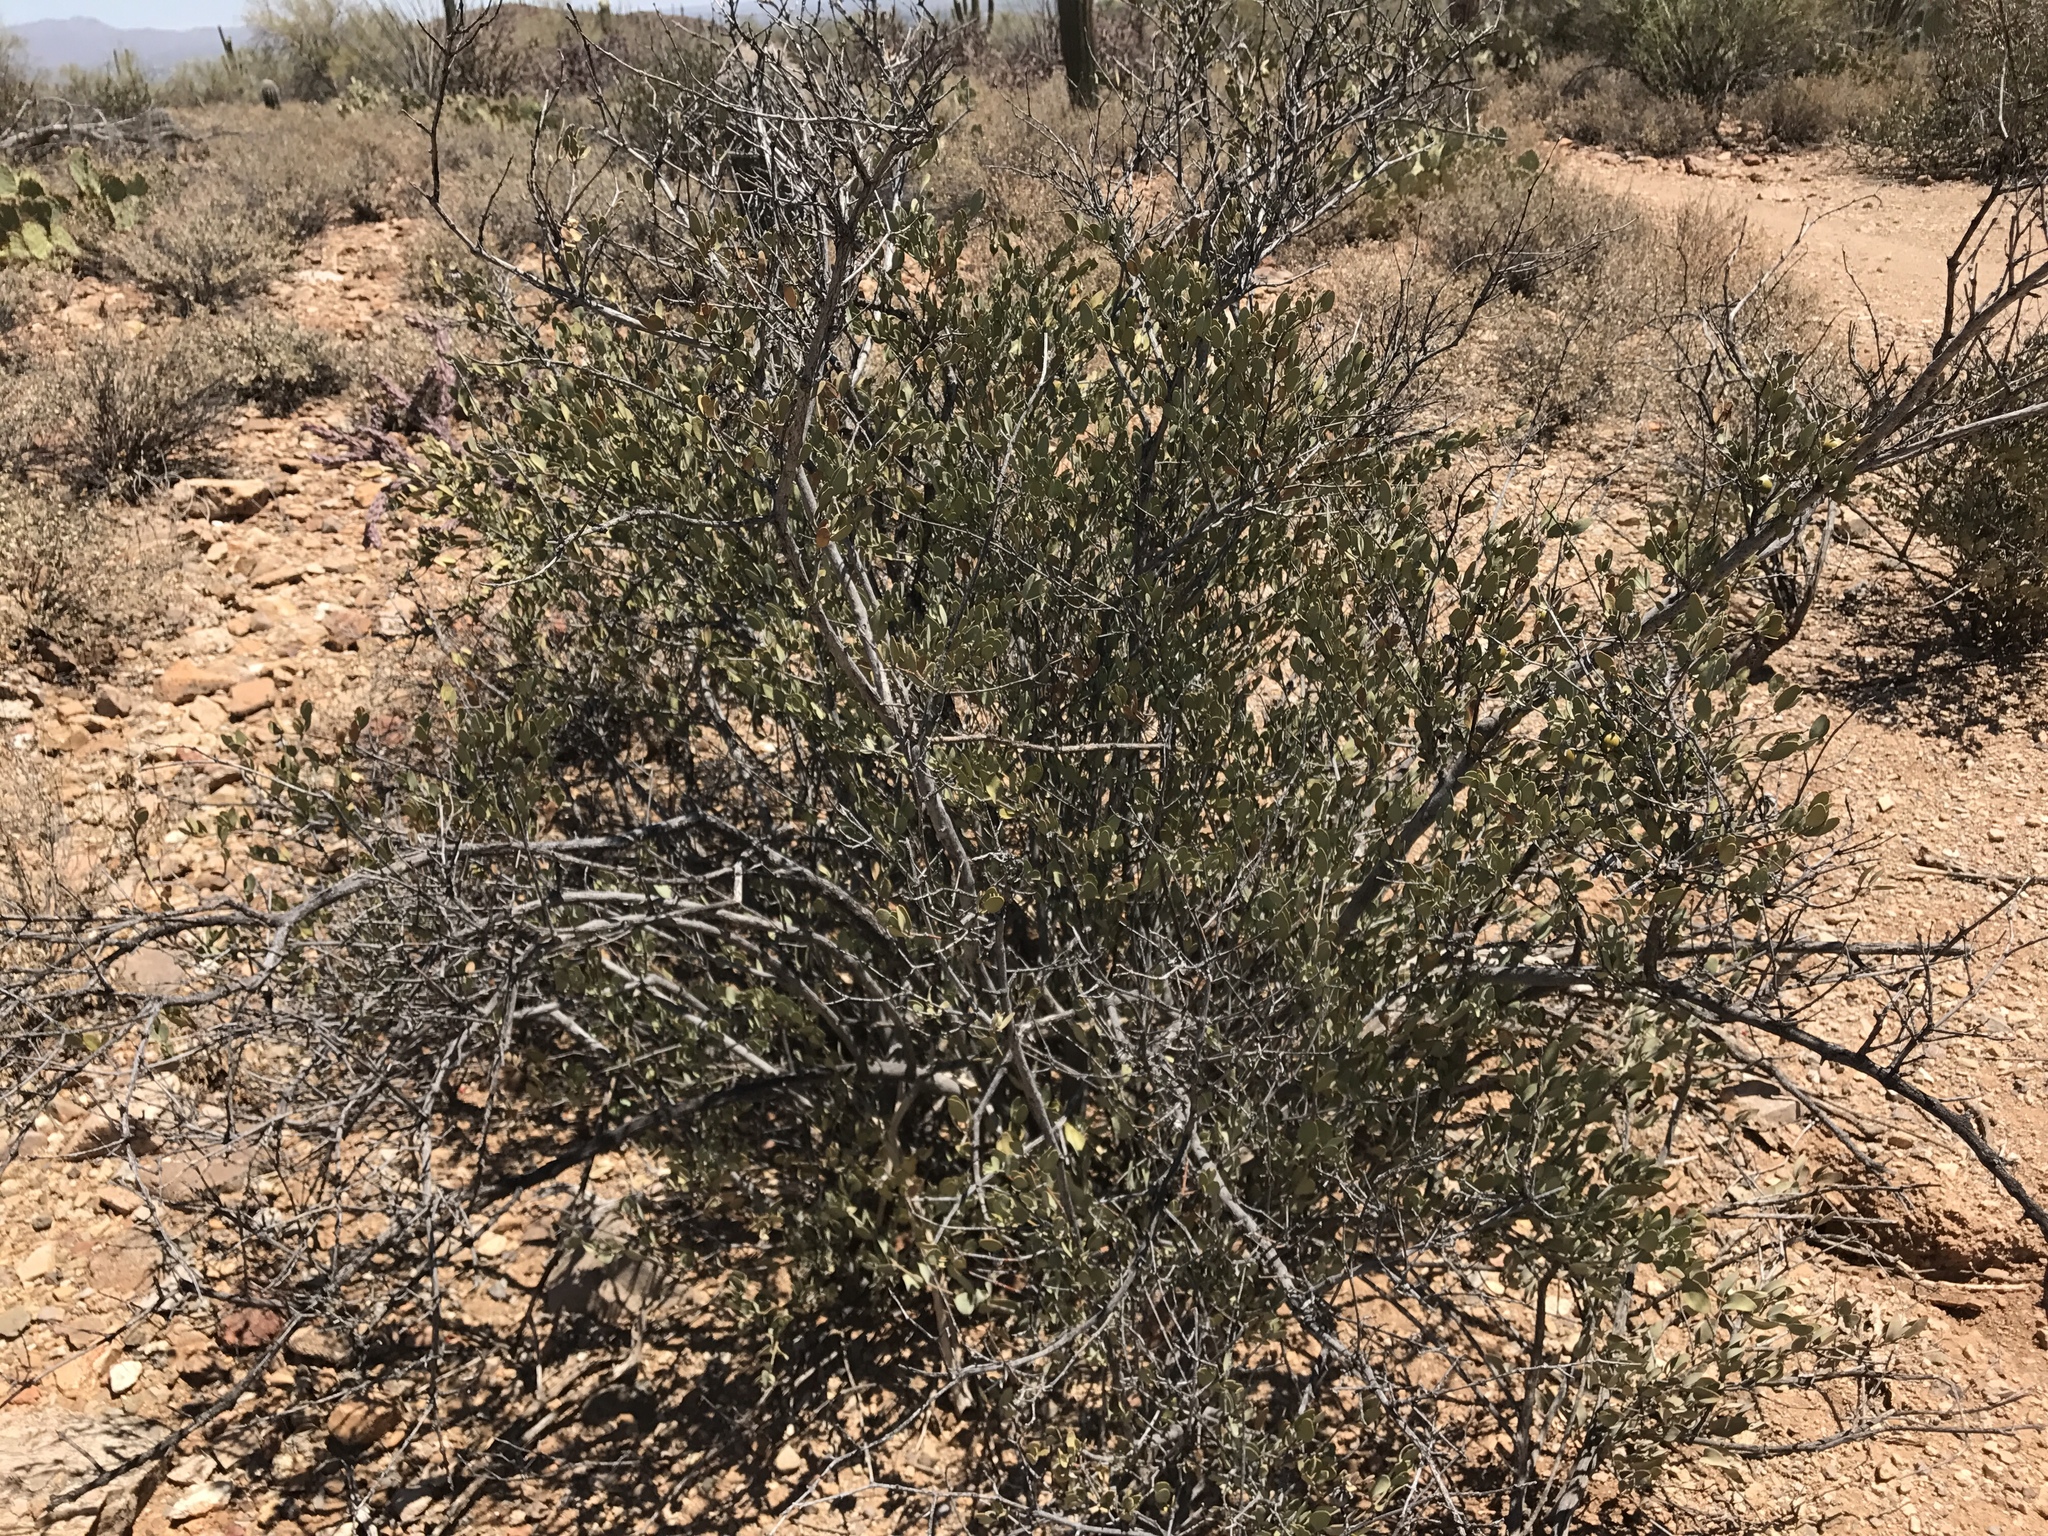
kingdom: Plantae
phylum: Tracheophyta
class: Magnoliopsida
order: Caryophyllales
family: Simmondsiaceae
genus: Simmondsia
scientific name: Simmondsia chinensis
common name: Jojoba
